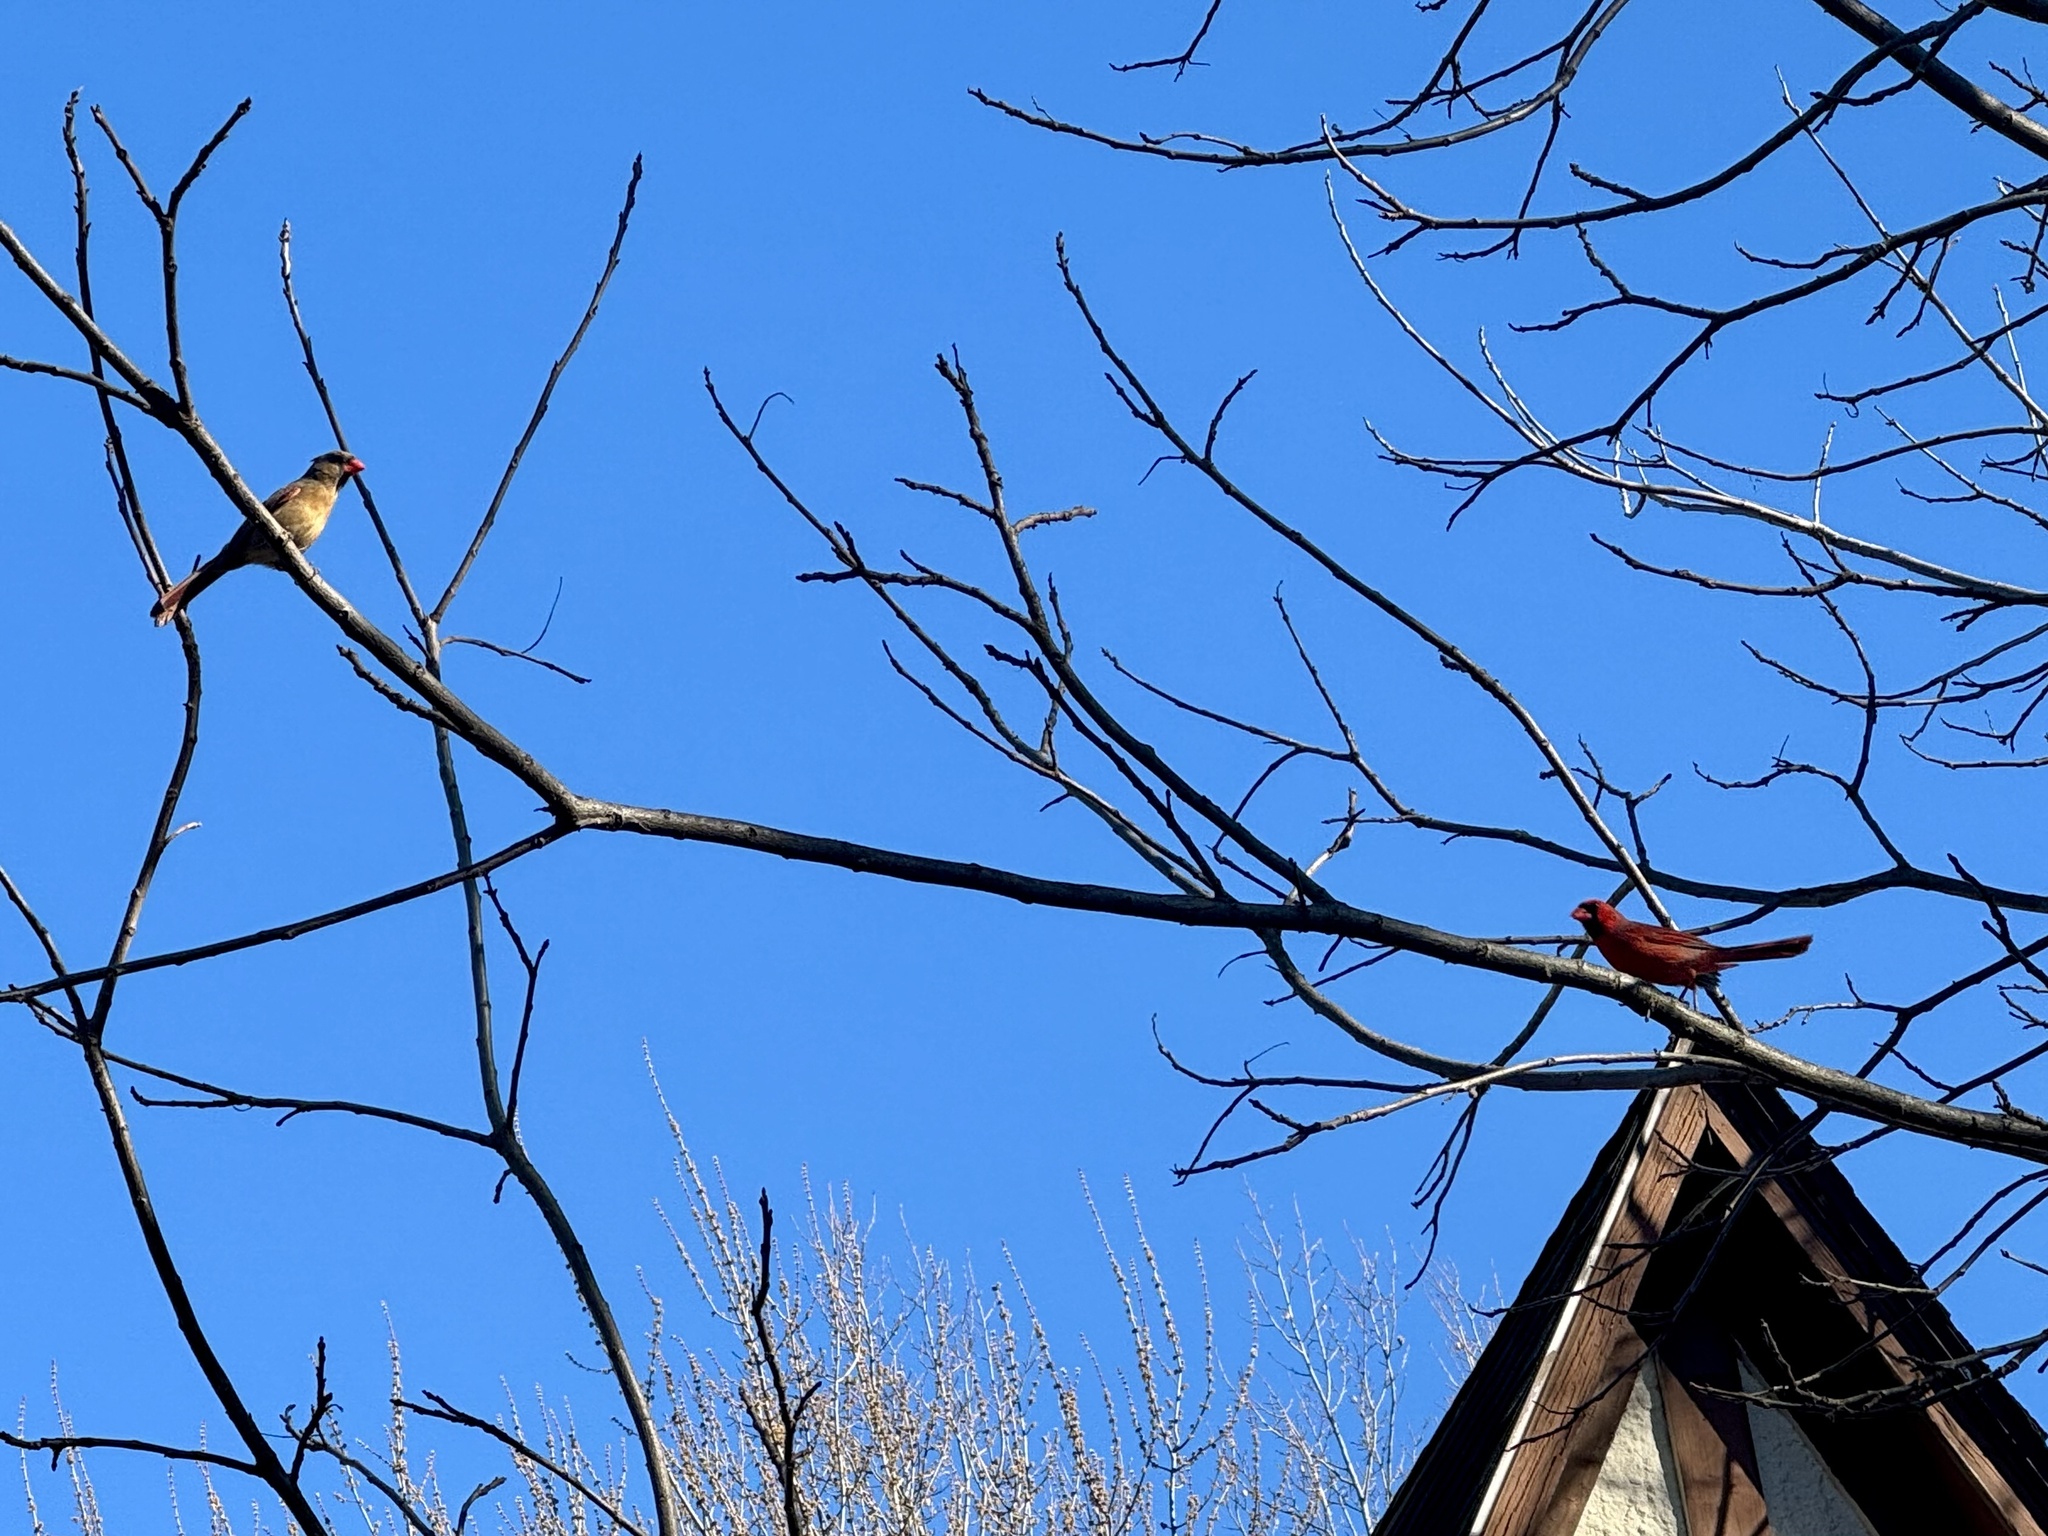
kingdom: Animalia
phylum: Chordata
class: Aves
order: Passeriformes
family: Cardinalidae
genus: Cardinalis
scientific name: Cardinalis cardinalis
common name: Northern cardinal
